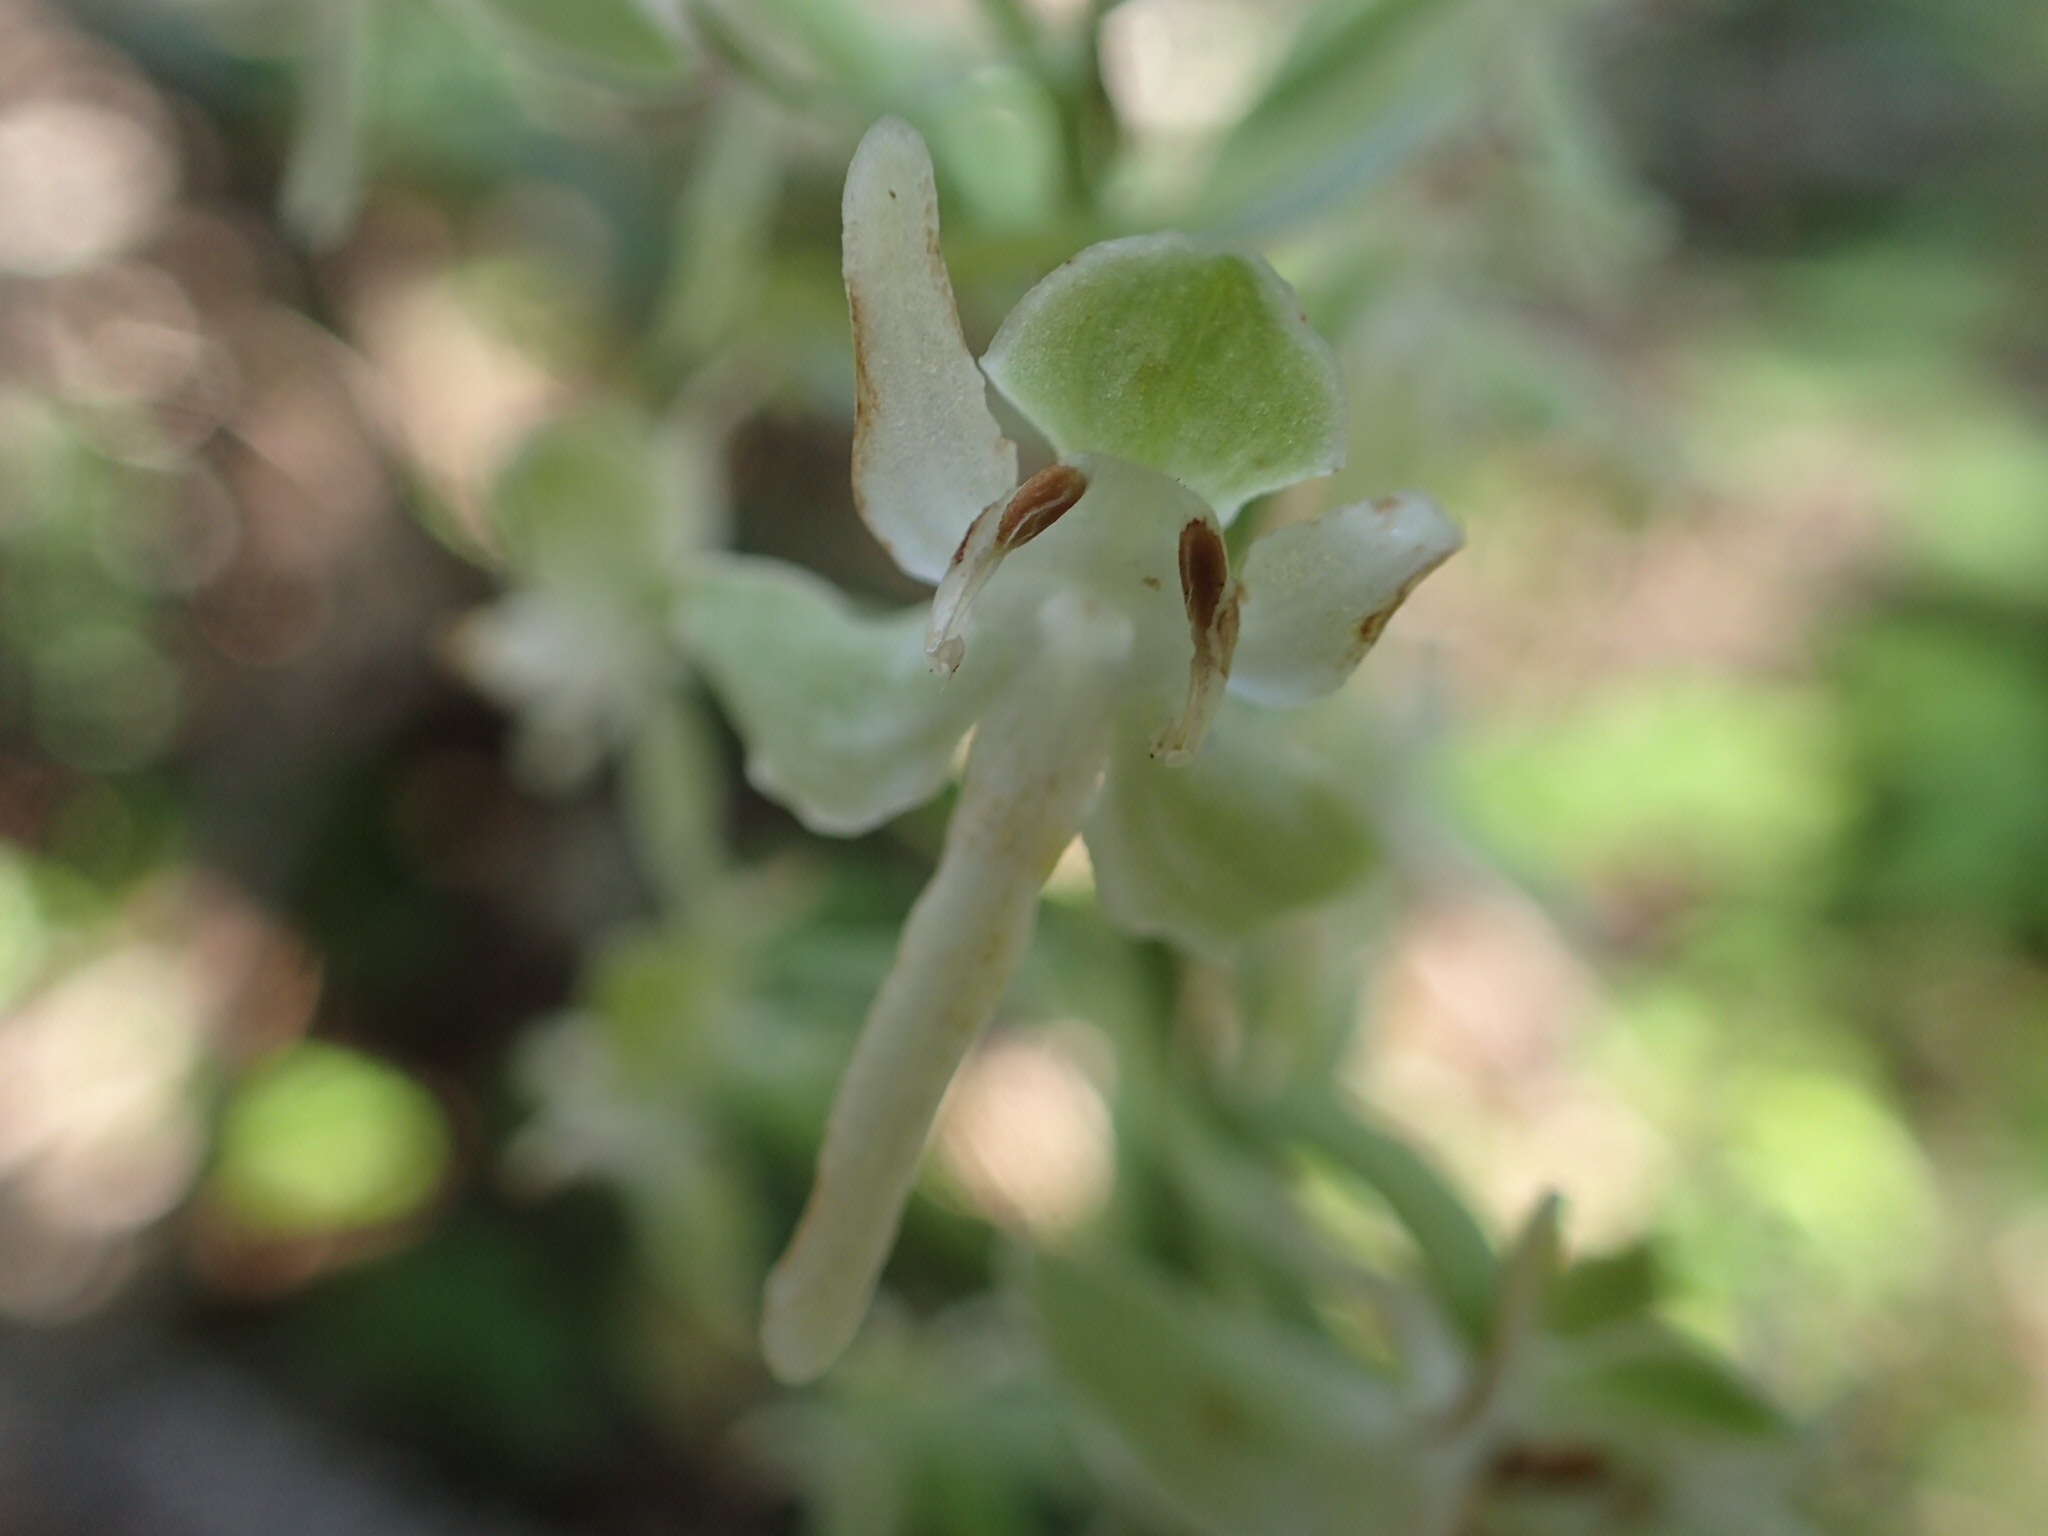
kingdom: Plantae
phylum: Tracheophyta
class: Liliopsida
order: Asparagales
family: Orchidaceae
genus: Platanthera
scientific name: Platanthera orbiculata
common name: Large round-leaved orchid
